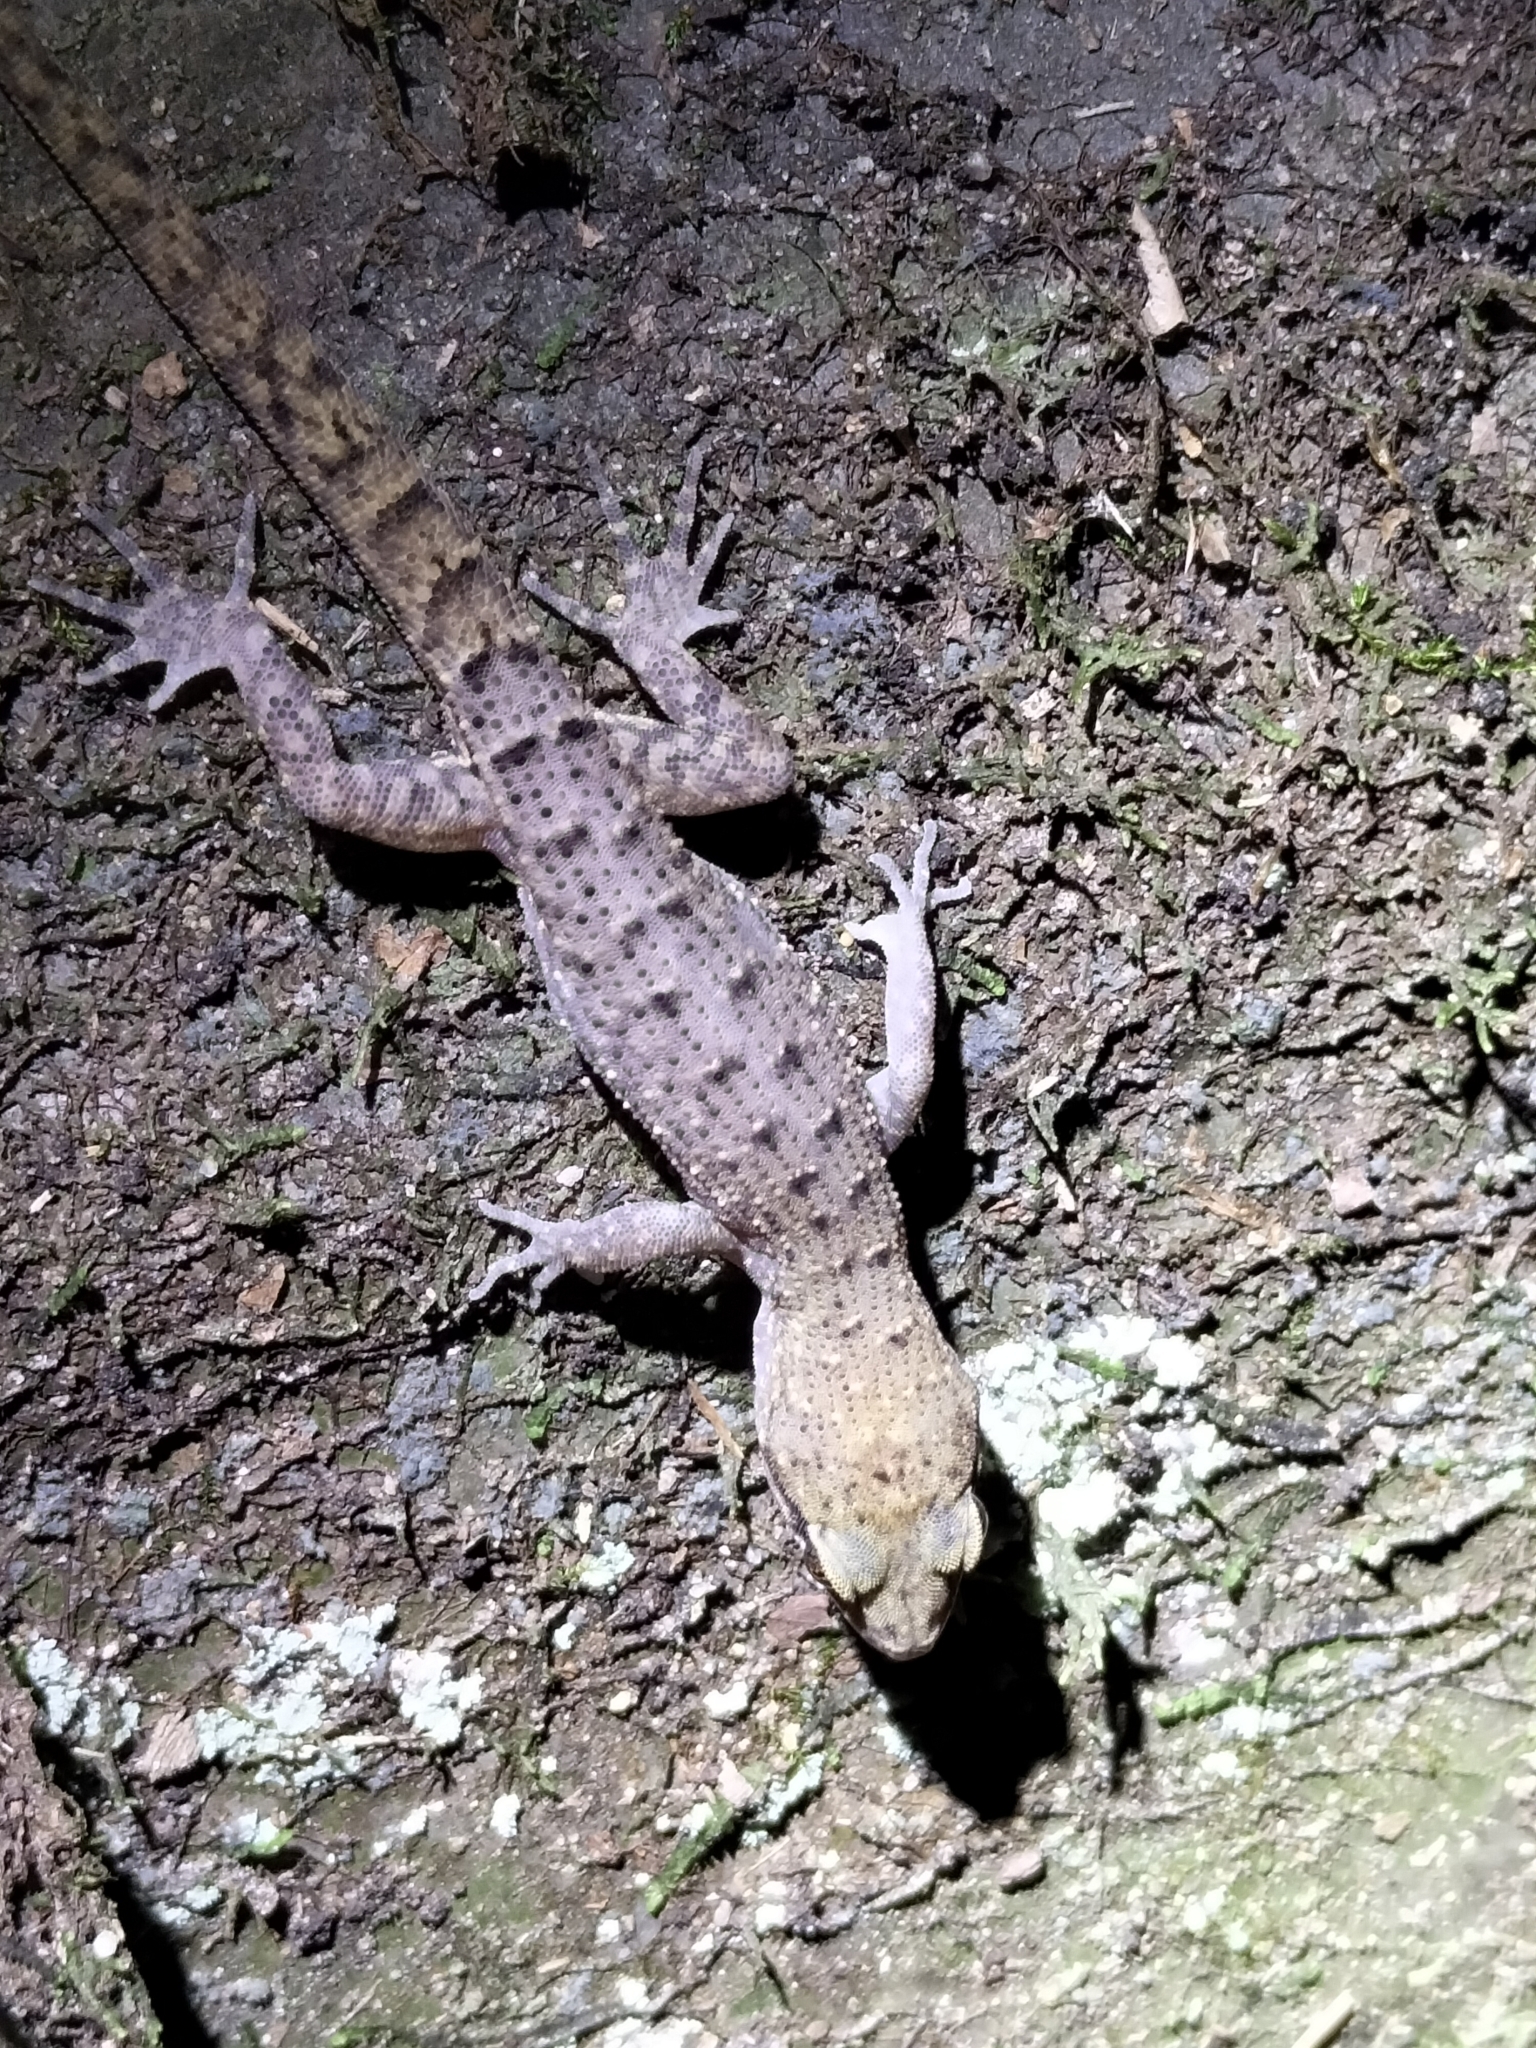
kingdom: Animalia
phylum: Chordata
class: Squamata
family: Gekkonidae
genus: Nactus
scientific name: Nactus cheverti
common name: Chevert's gecko
